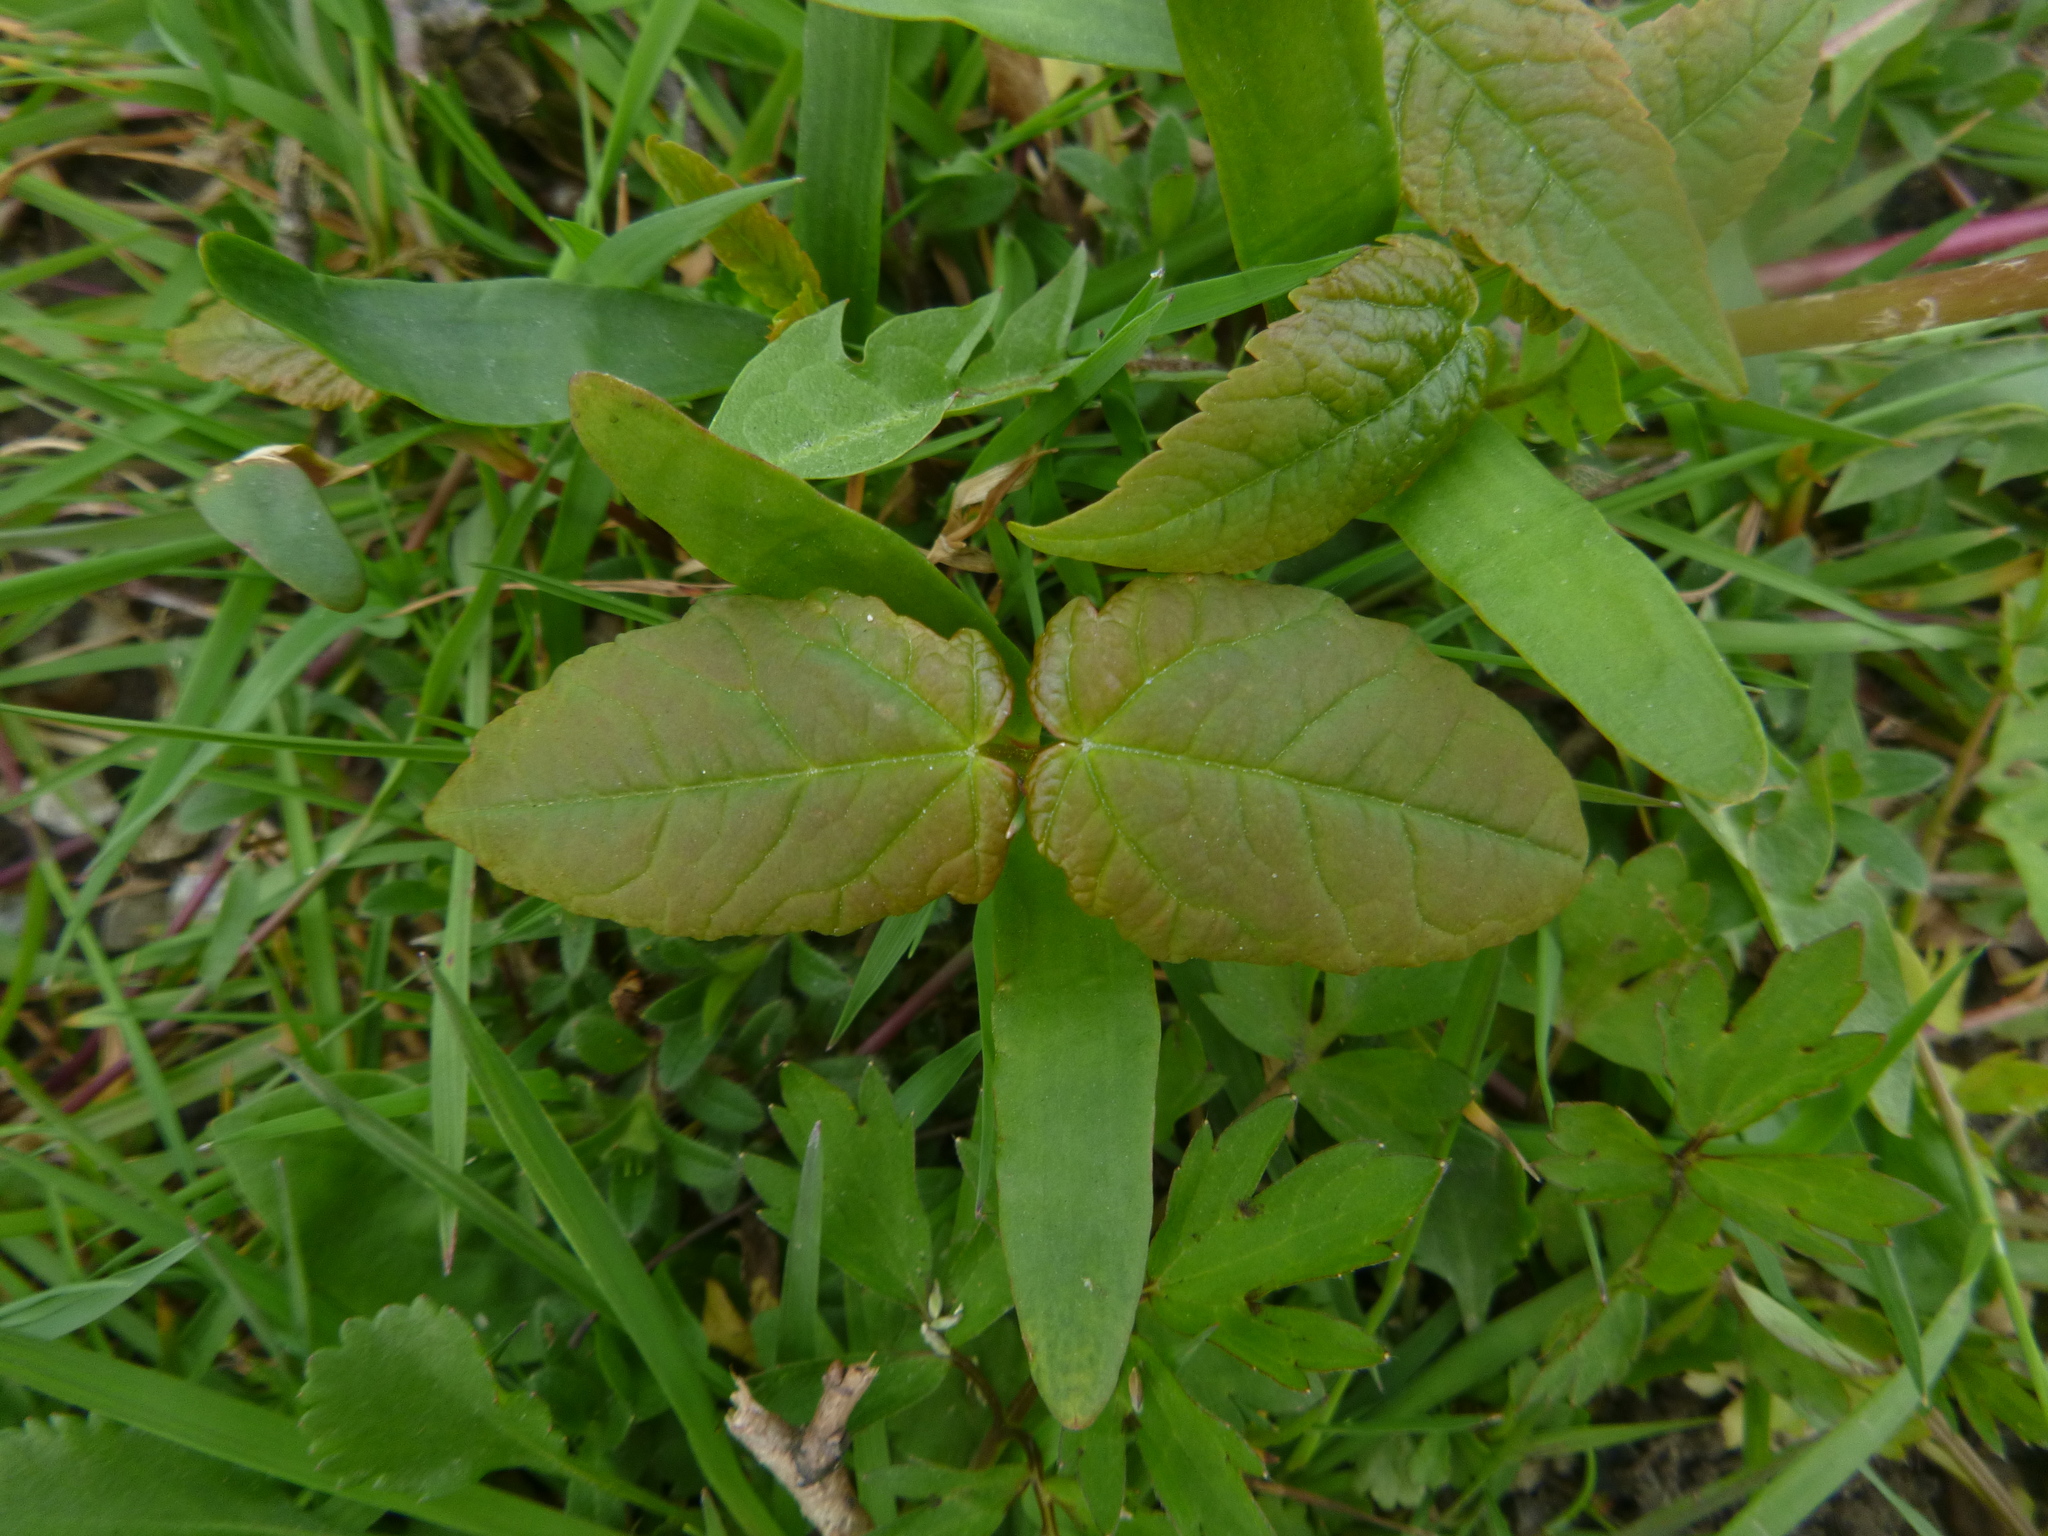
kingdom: Plantae
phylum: Tracheophyta
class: Magnoliopsida
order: Sapindales
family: Sapindaceae
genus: Acer
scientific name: Acer pseudoplatanus
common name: Sycamore
